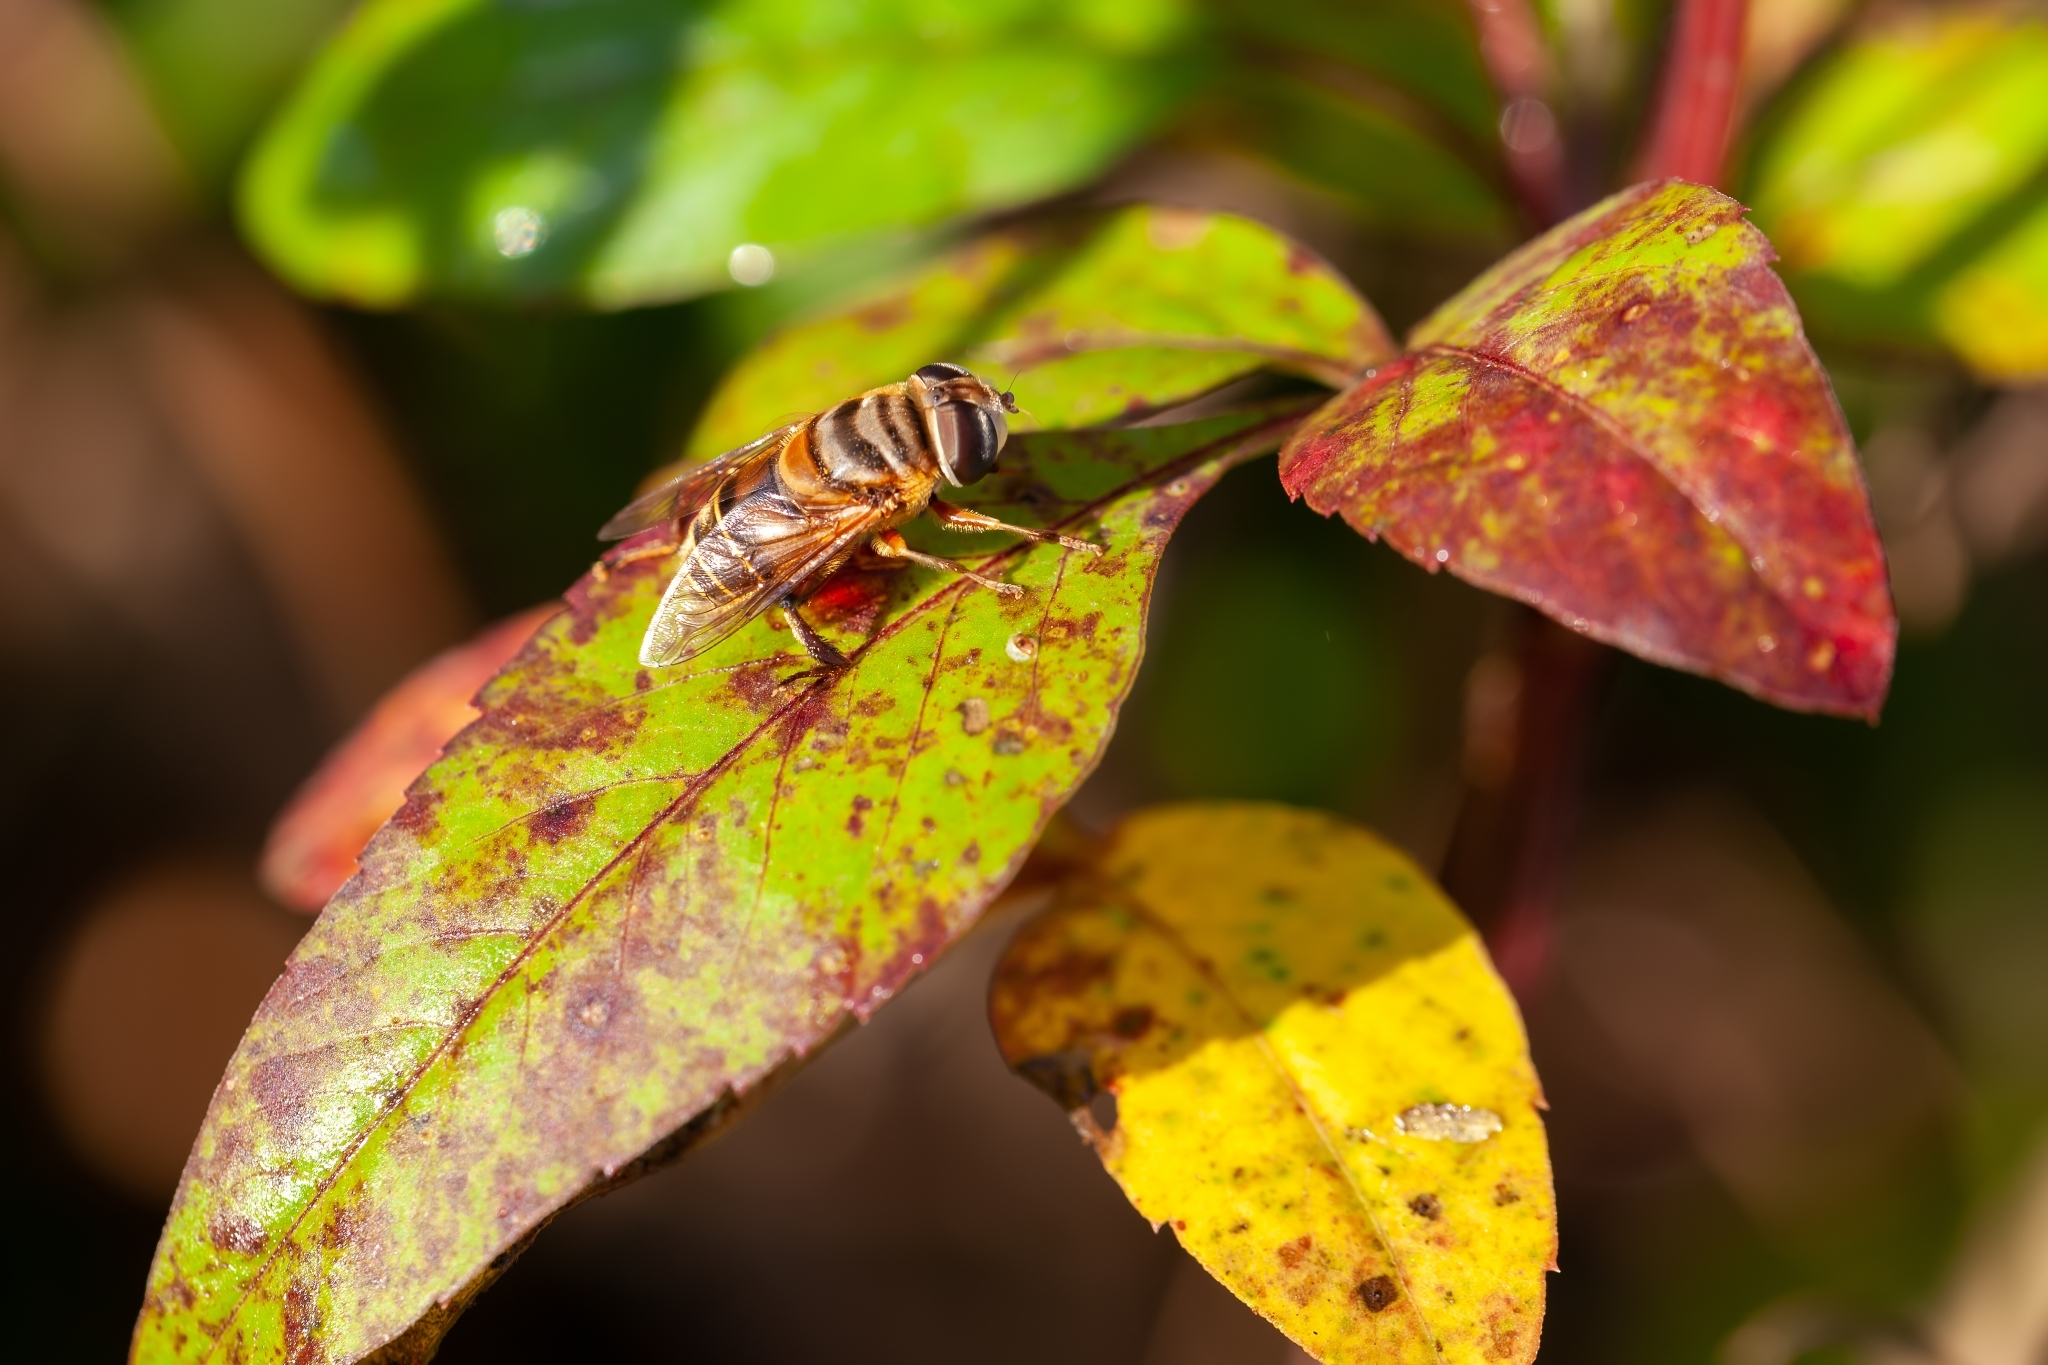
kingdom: Animalia
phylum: Arthropoda
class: Insecta
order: Diptera
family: Syrphidae
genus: Palpada
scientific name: Palpada vinetorum
